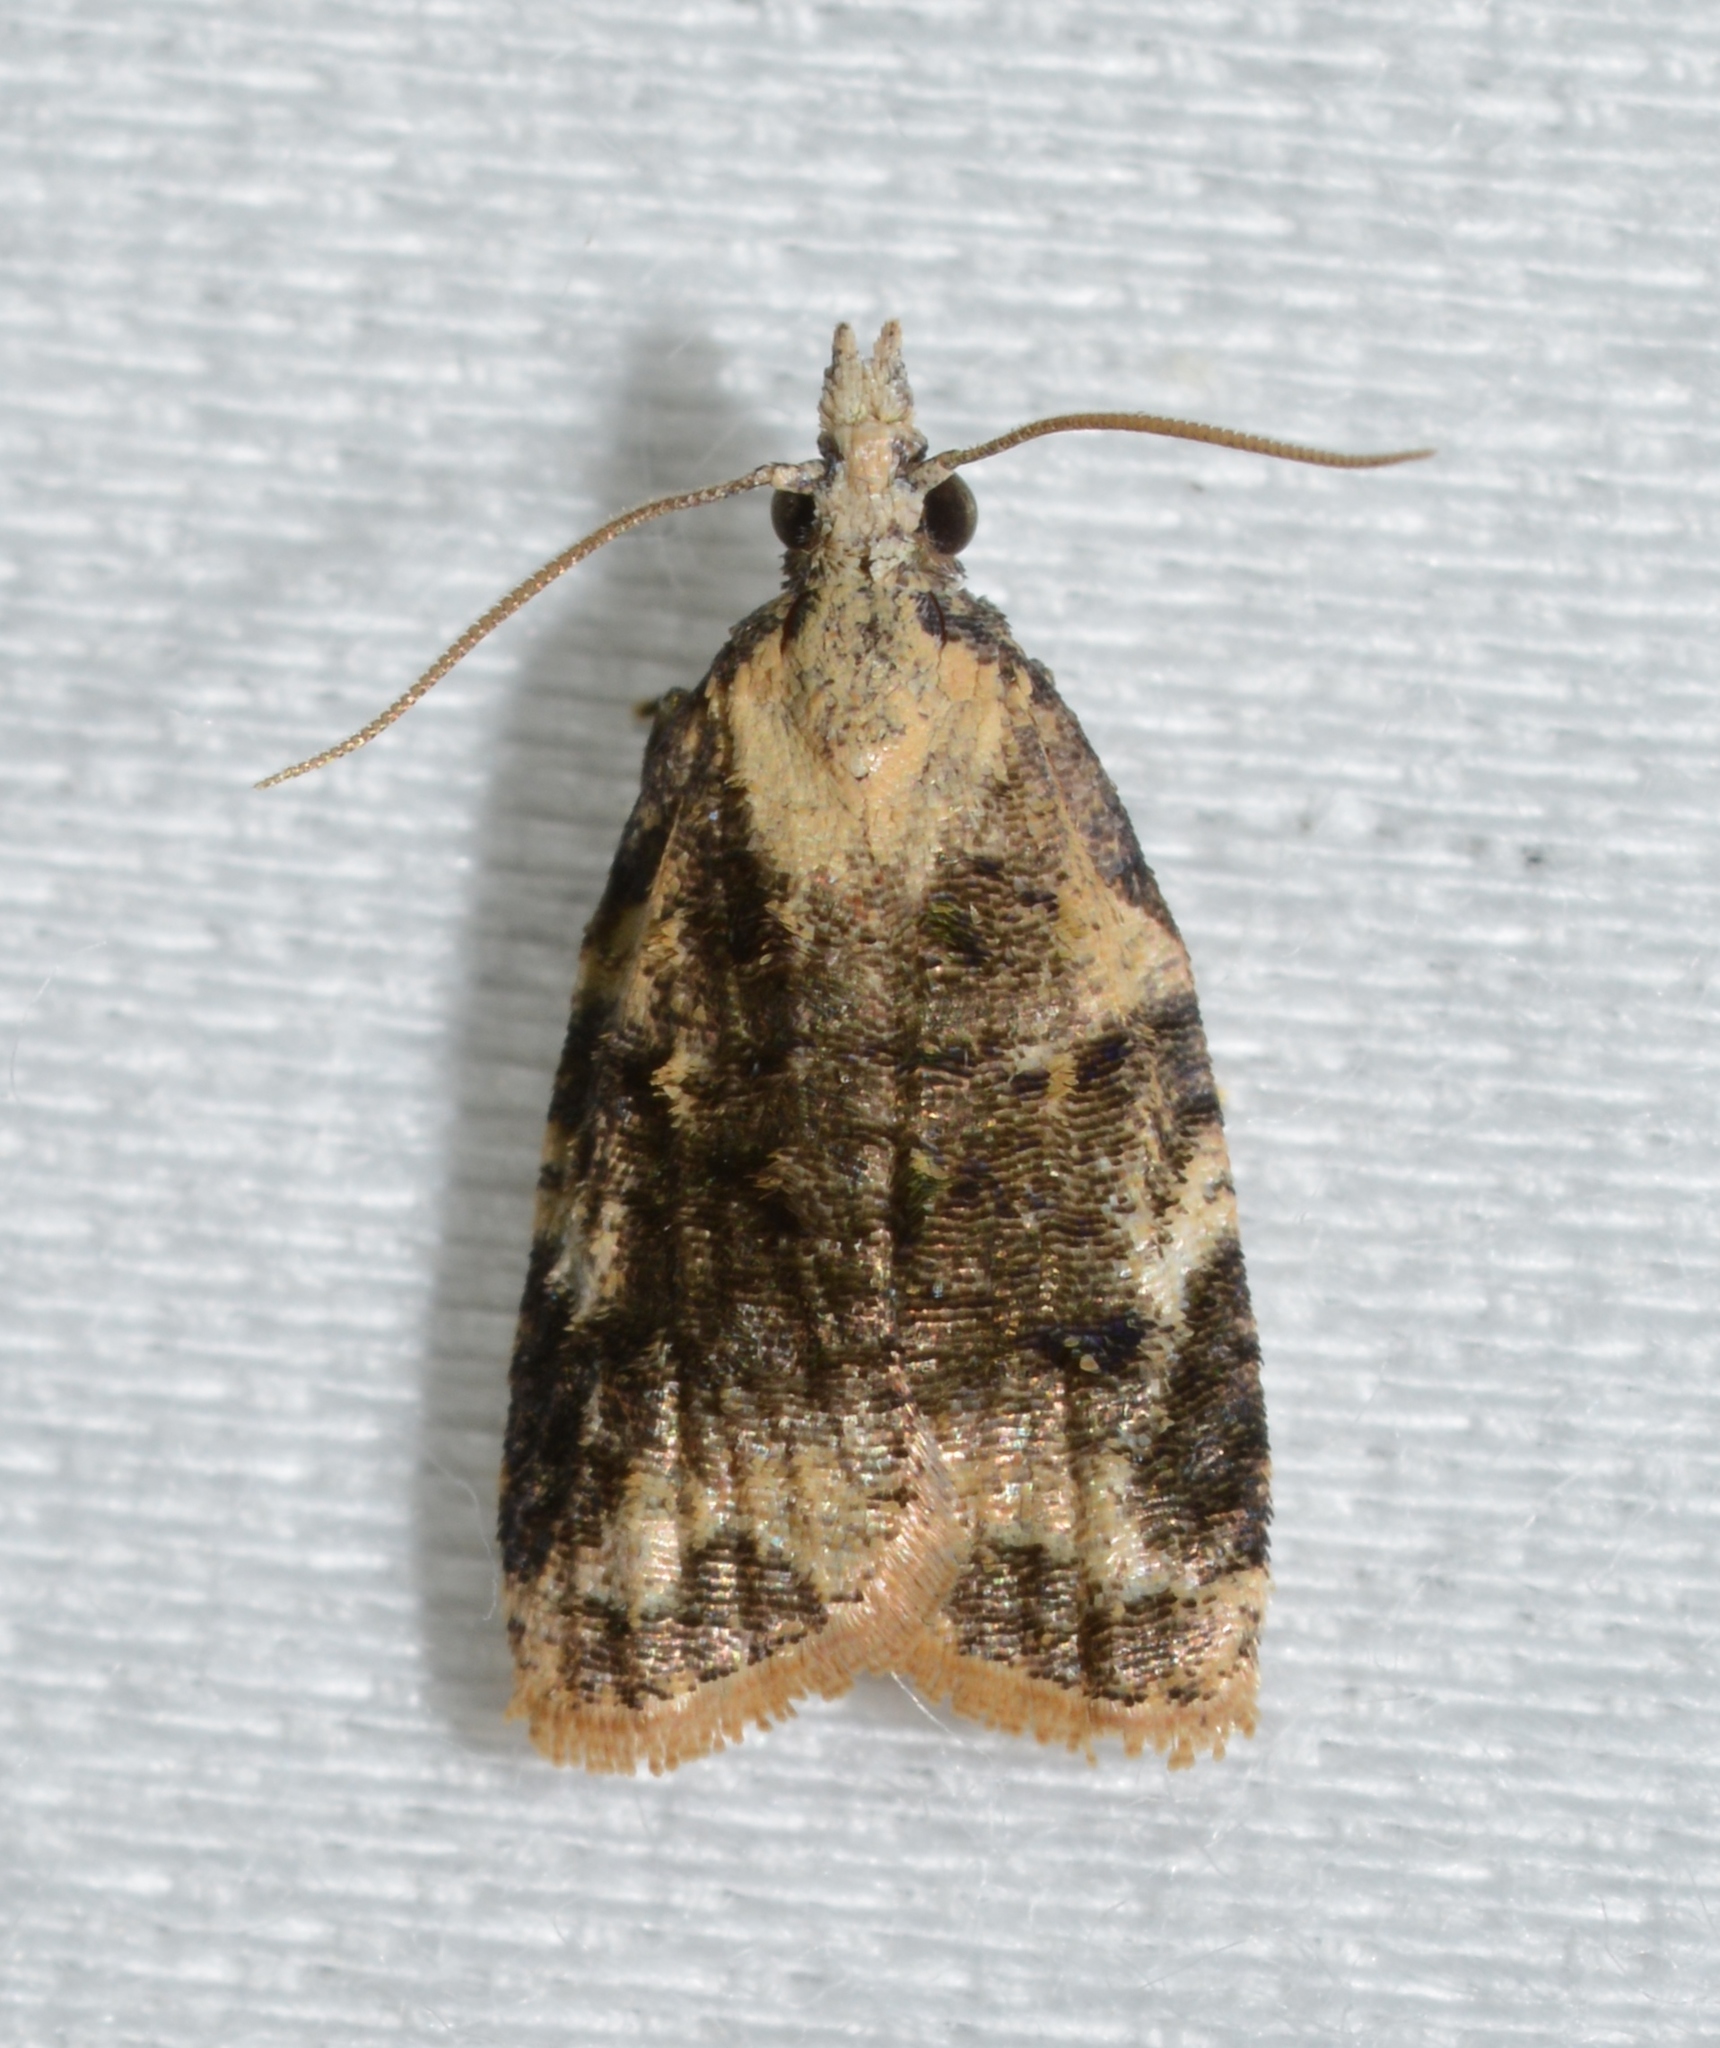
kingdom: Animalia
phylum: Arthropoda
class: Insecta
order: Lepidoptera
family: Tortricidae
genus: Platynota
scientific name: Platynota exasperatana
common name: Exasperating platynota moth
